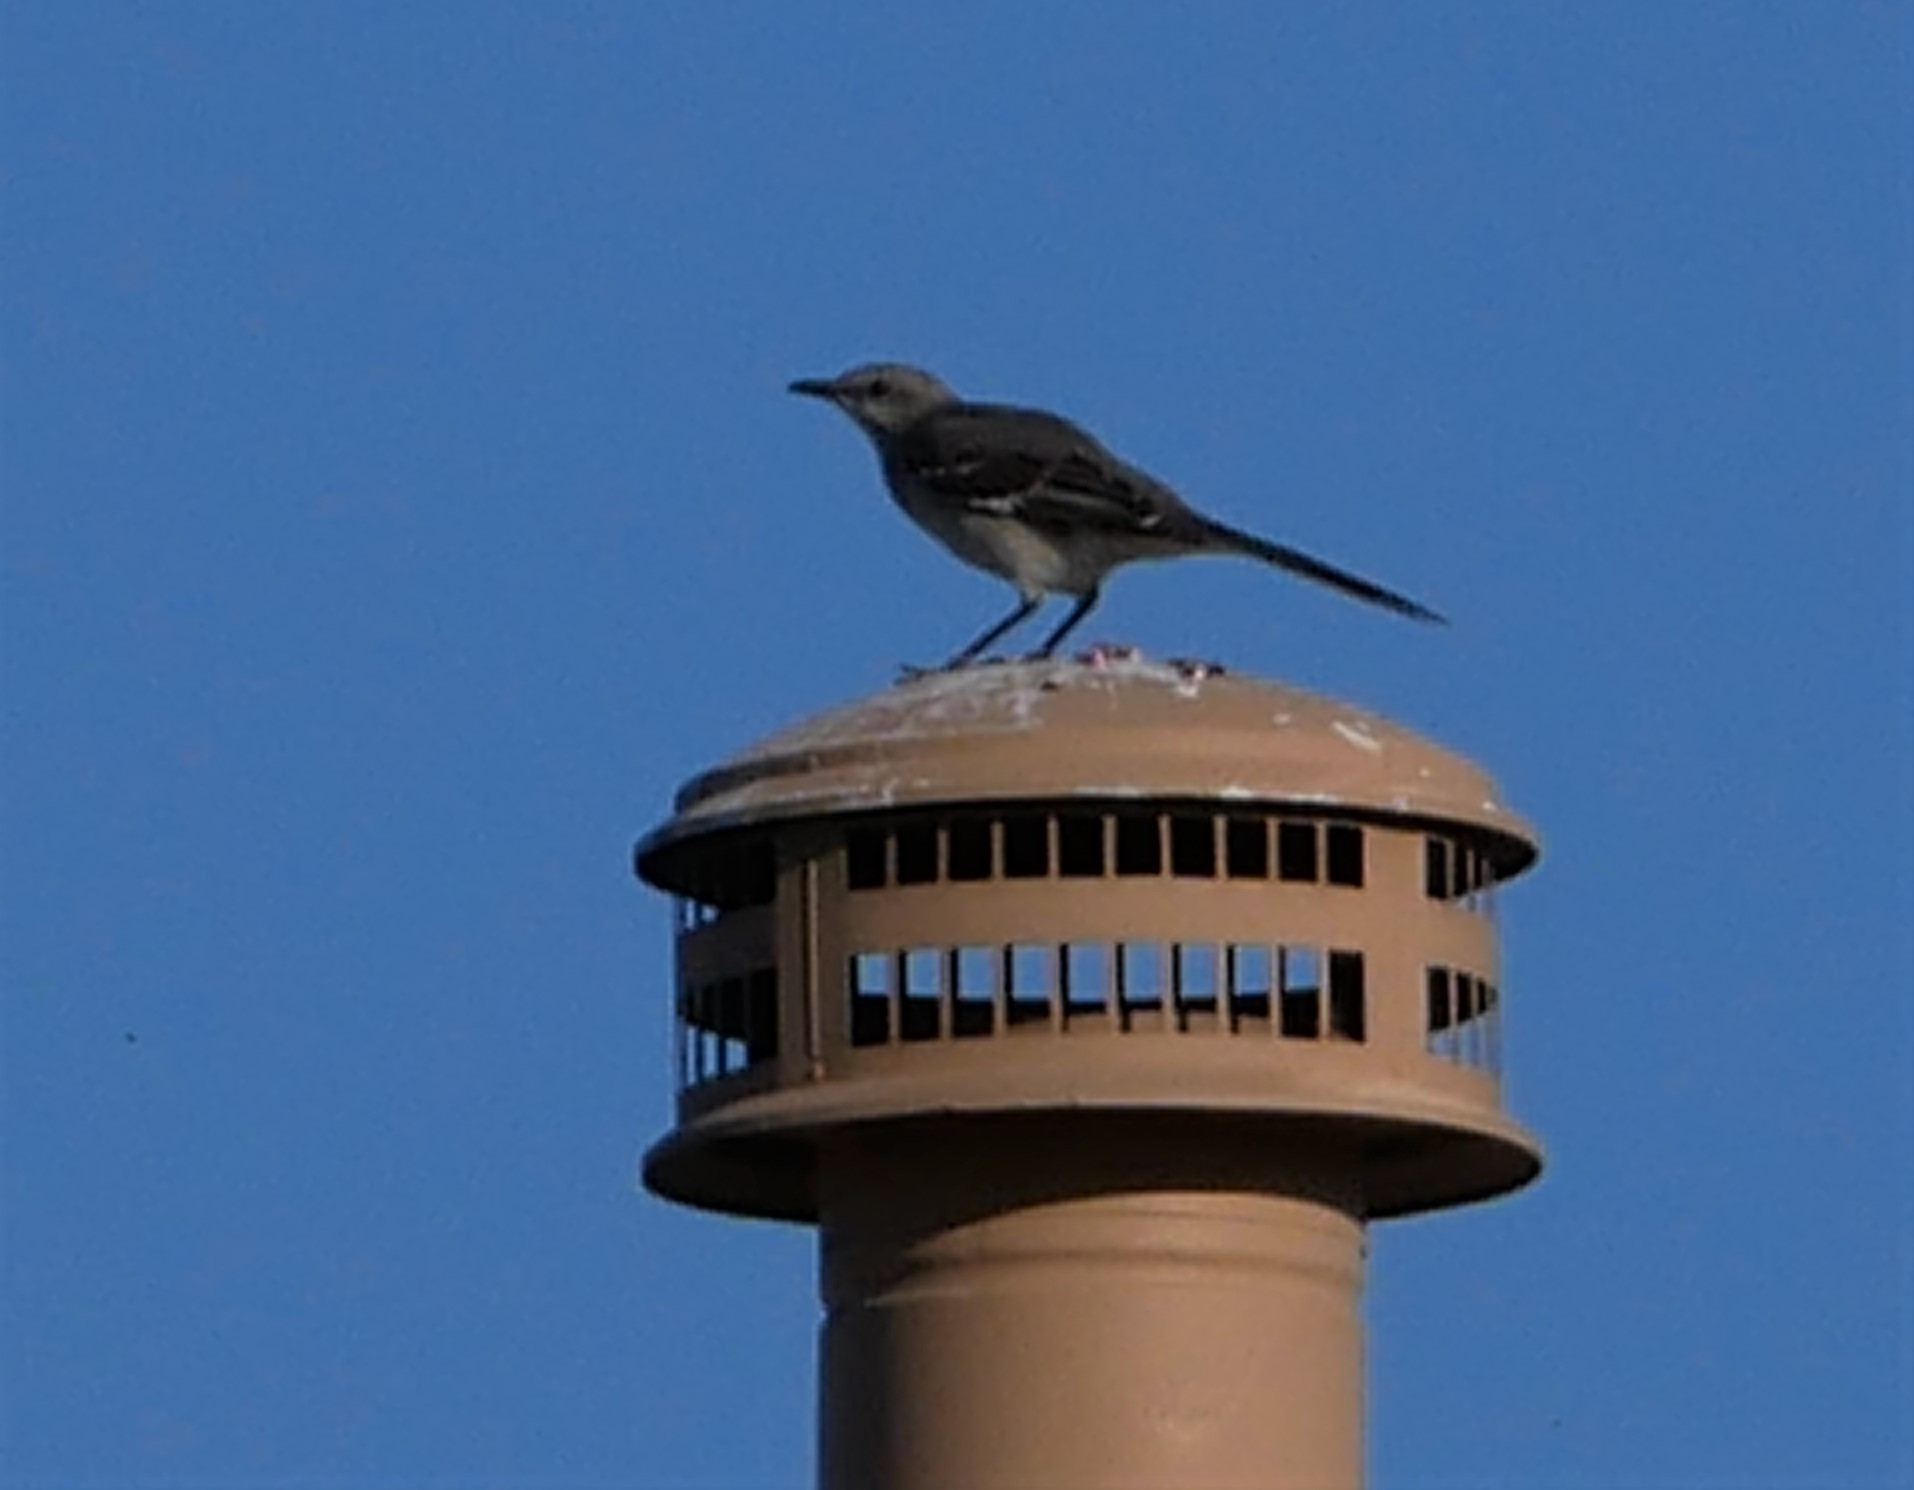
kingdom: Animalia
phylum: Chordata
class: Aves
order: Passeriformes
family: Mimidae
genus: Mimus
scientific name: Mimus polyglottos
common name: Northern mockingbird
